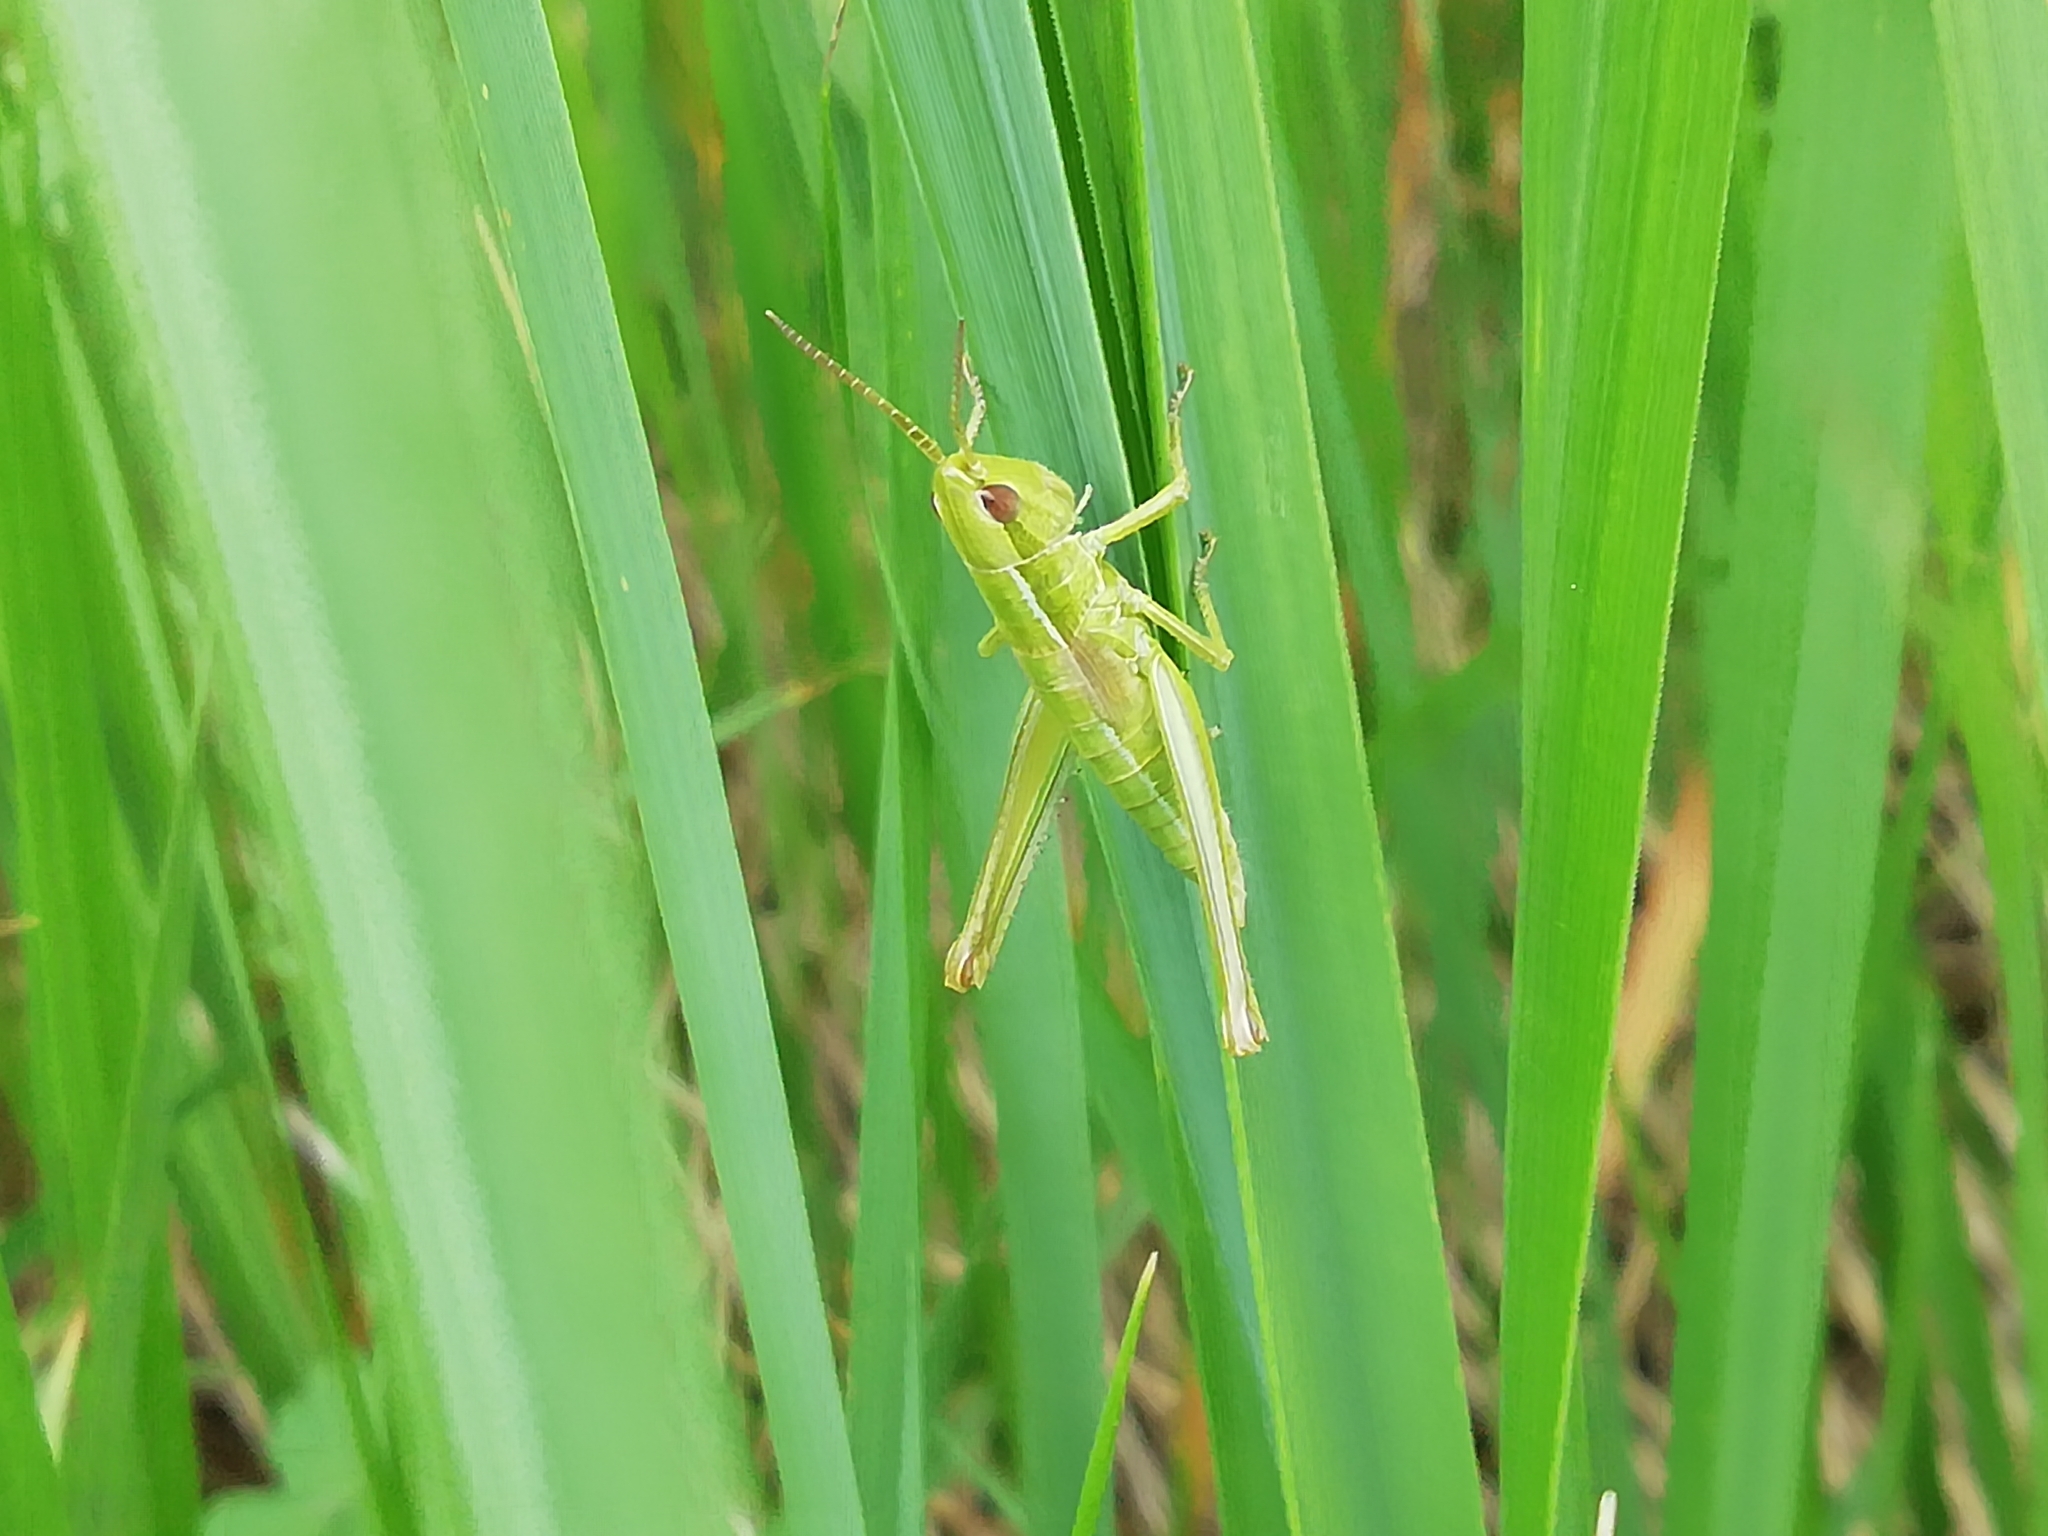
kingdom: Animalia
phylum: Arthropoda
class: Insecta
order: Orthoptera
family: Acrididae
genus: Euthystira
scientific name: Euthystira brachyptera
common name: Small gold grasshopper
